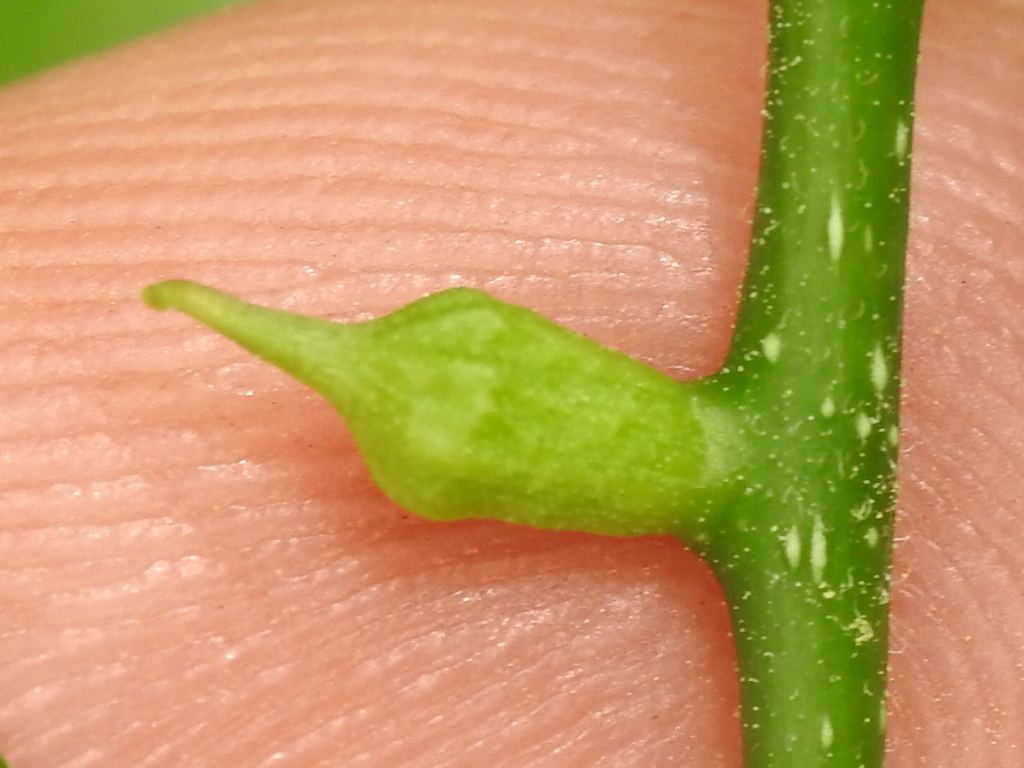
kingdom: Animalia
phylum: Arthropoda
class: Insecta
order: Diptera
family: Cecidomyiidae
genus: Celticecis
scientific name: Celticecis ramicola
